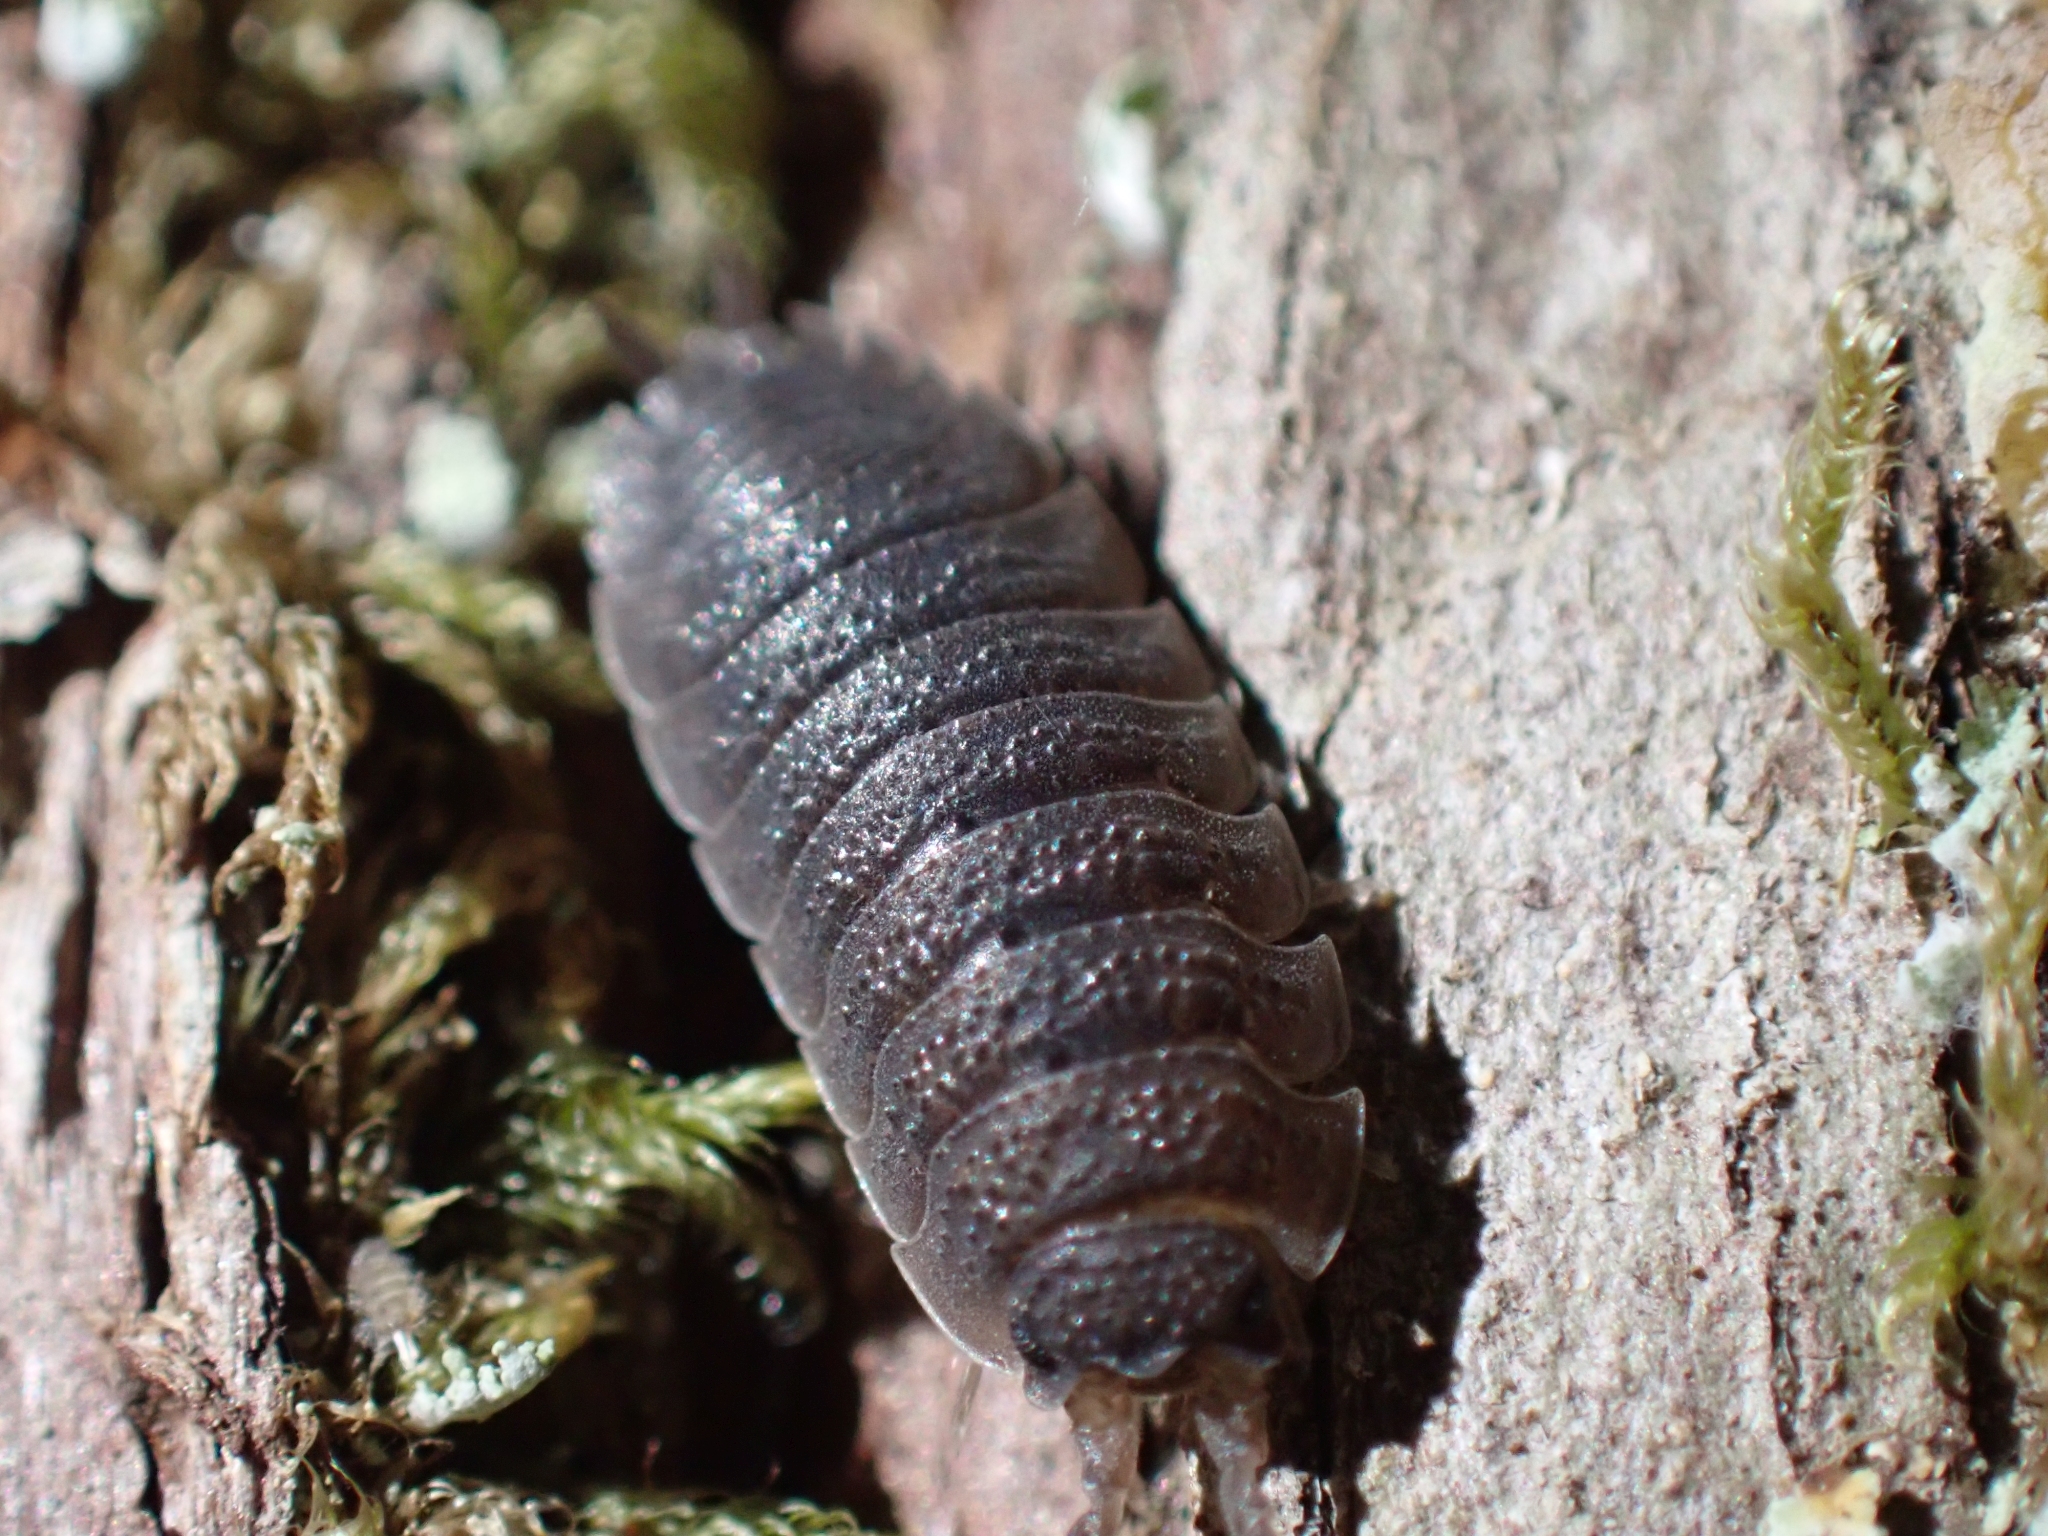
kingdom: Animalia
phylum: Arthropoda
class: Malacostraca
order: Isopoda
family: Porcellionidae
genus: Porcellio
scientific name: Porcellio scaber
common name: Common rough woodlouse
